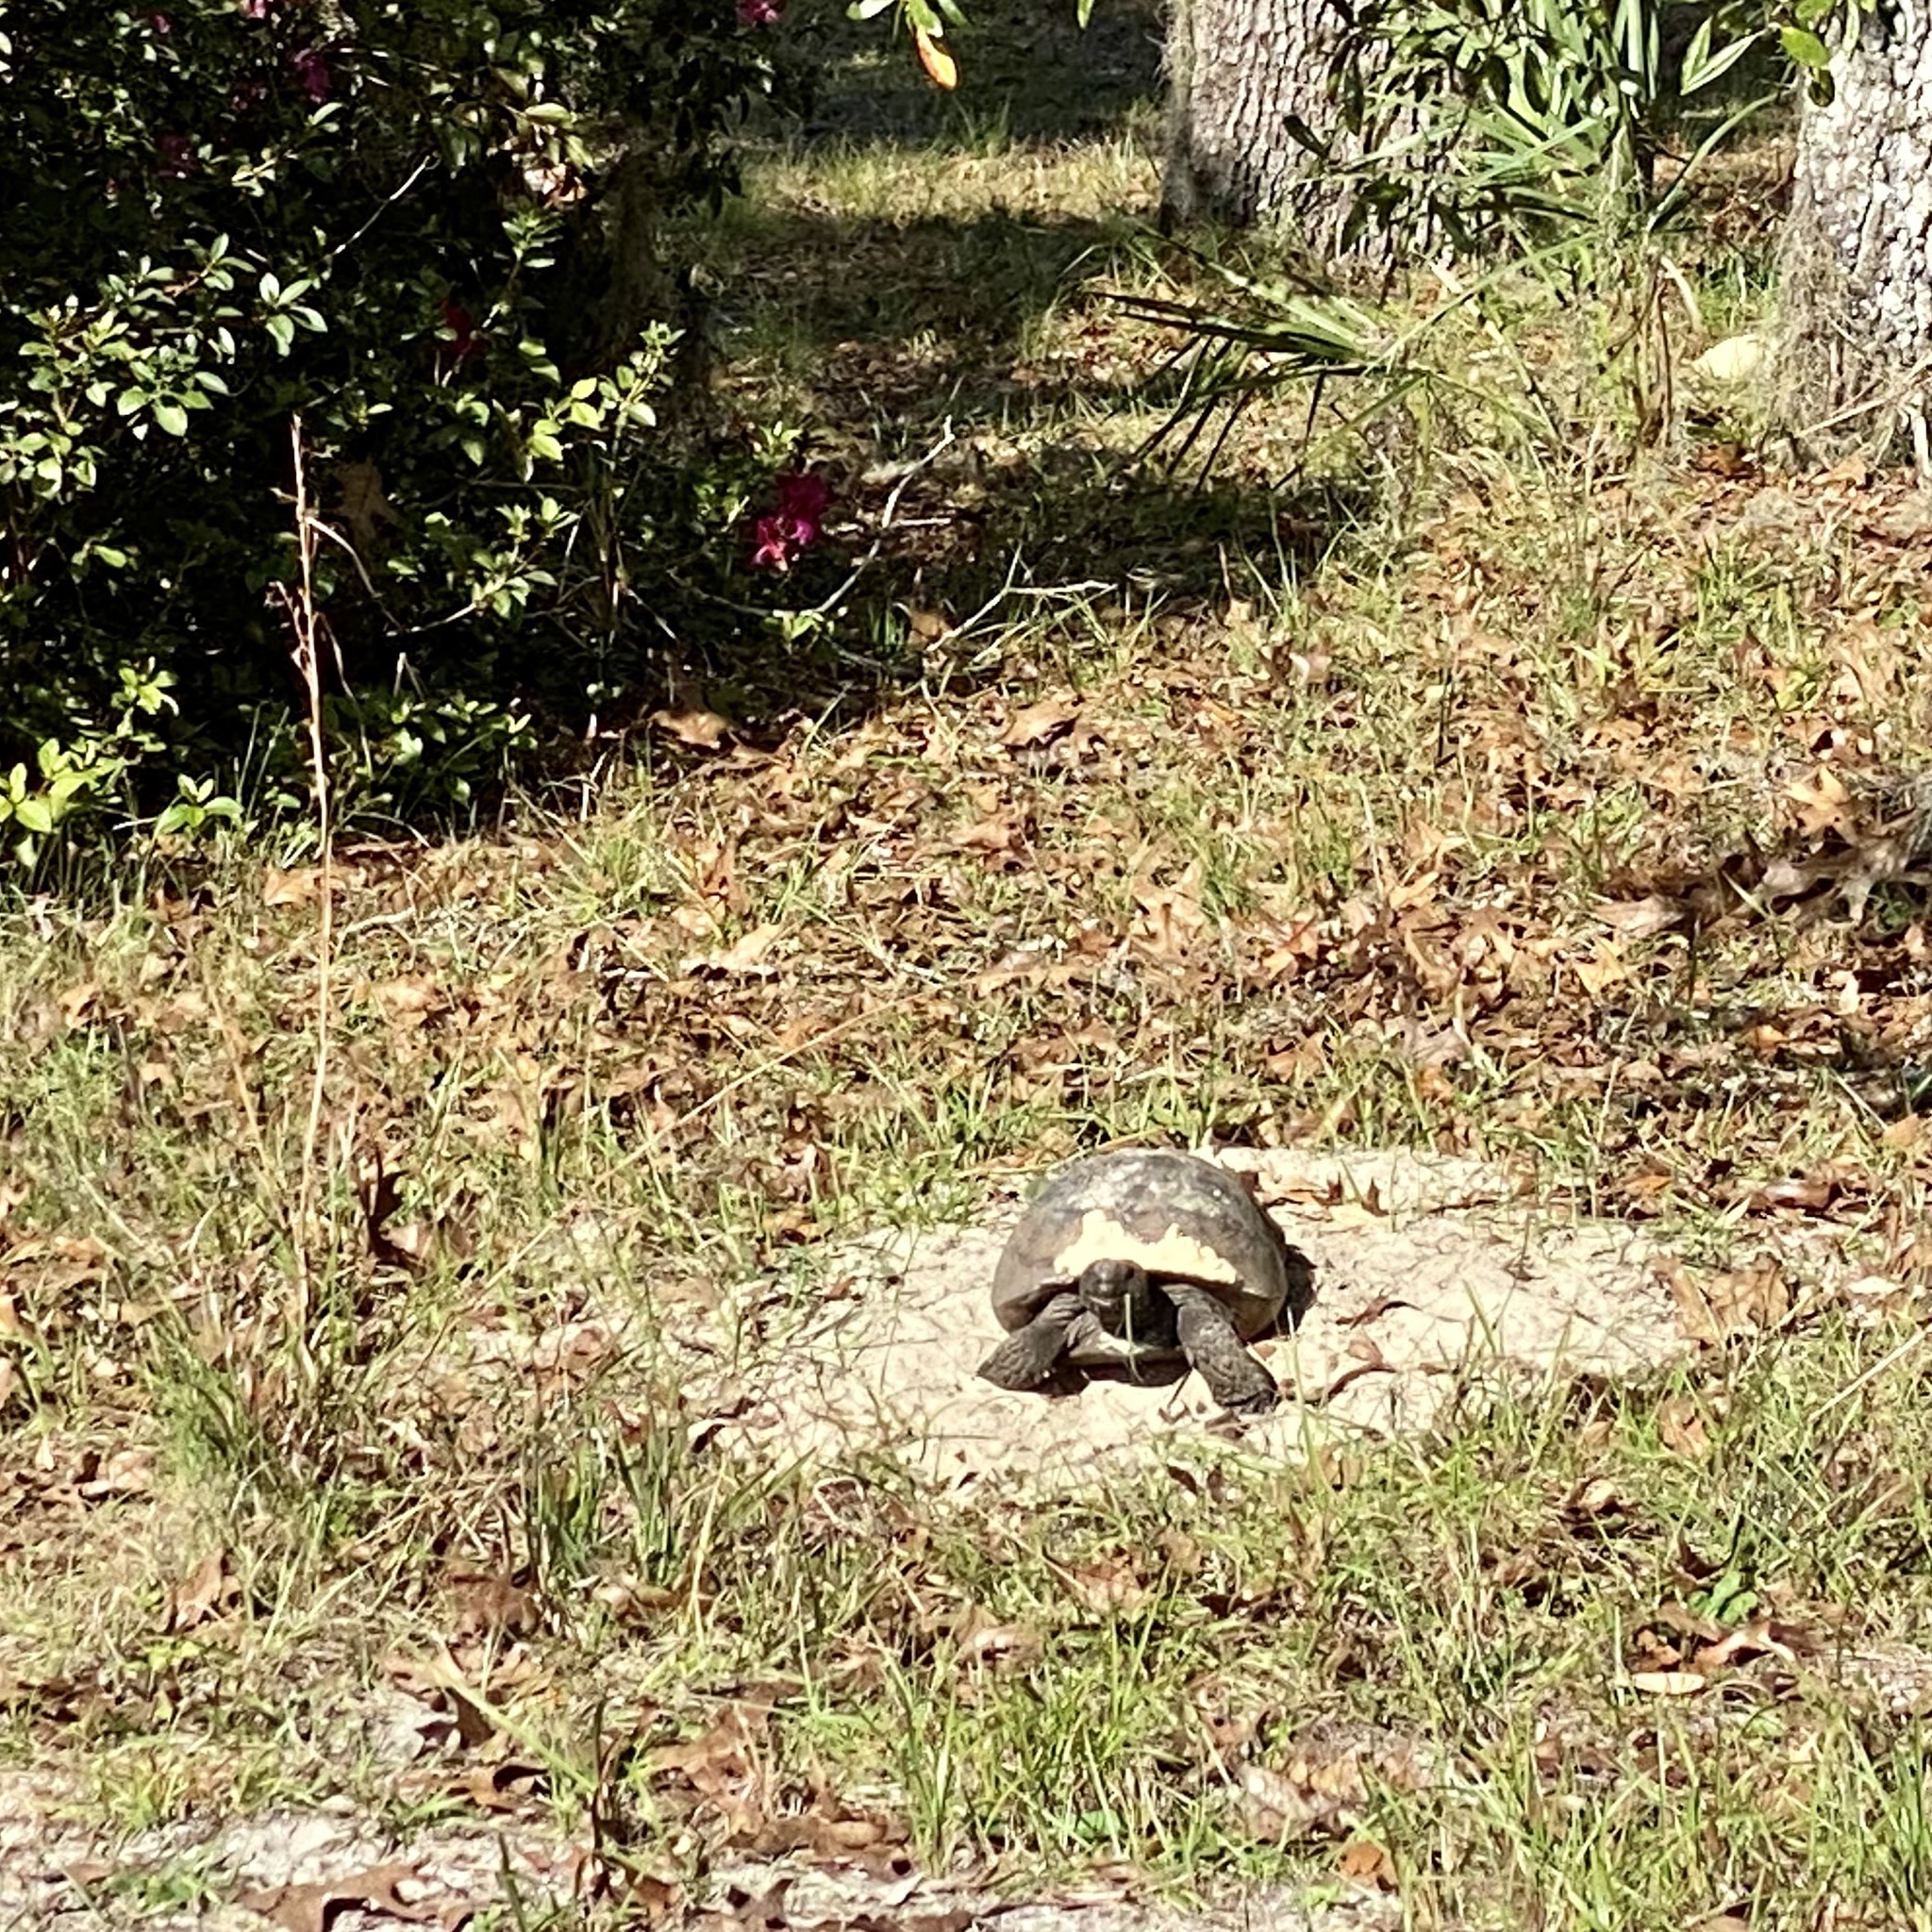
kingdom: Animalia
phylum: Chordata
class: Testudines
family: Testudinidae
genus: Gopherus
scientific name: Gopherus polyphemus
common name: Florida gopher tortoise
